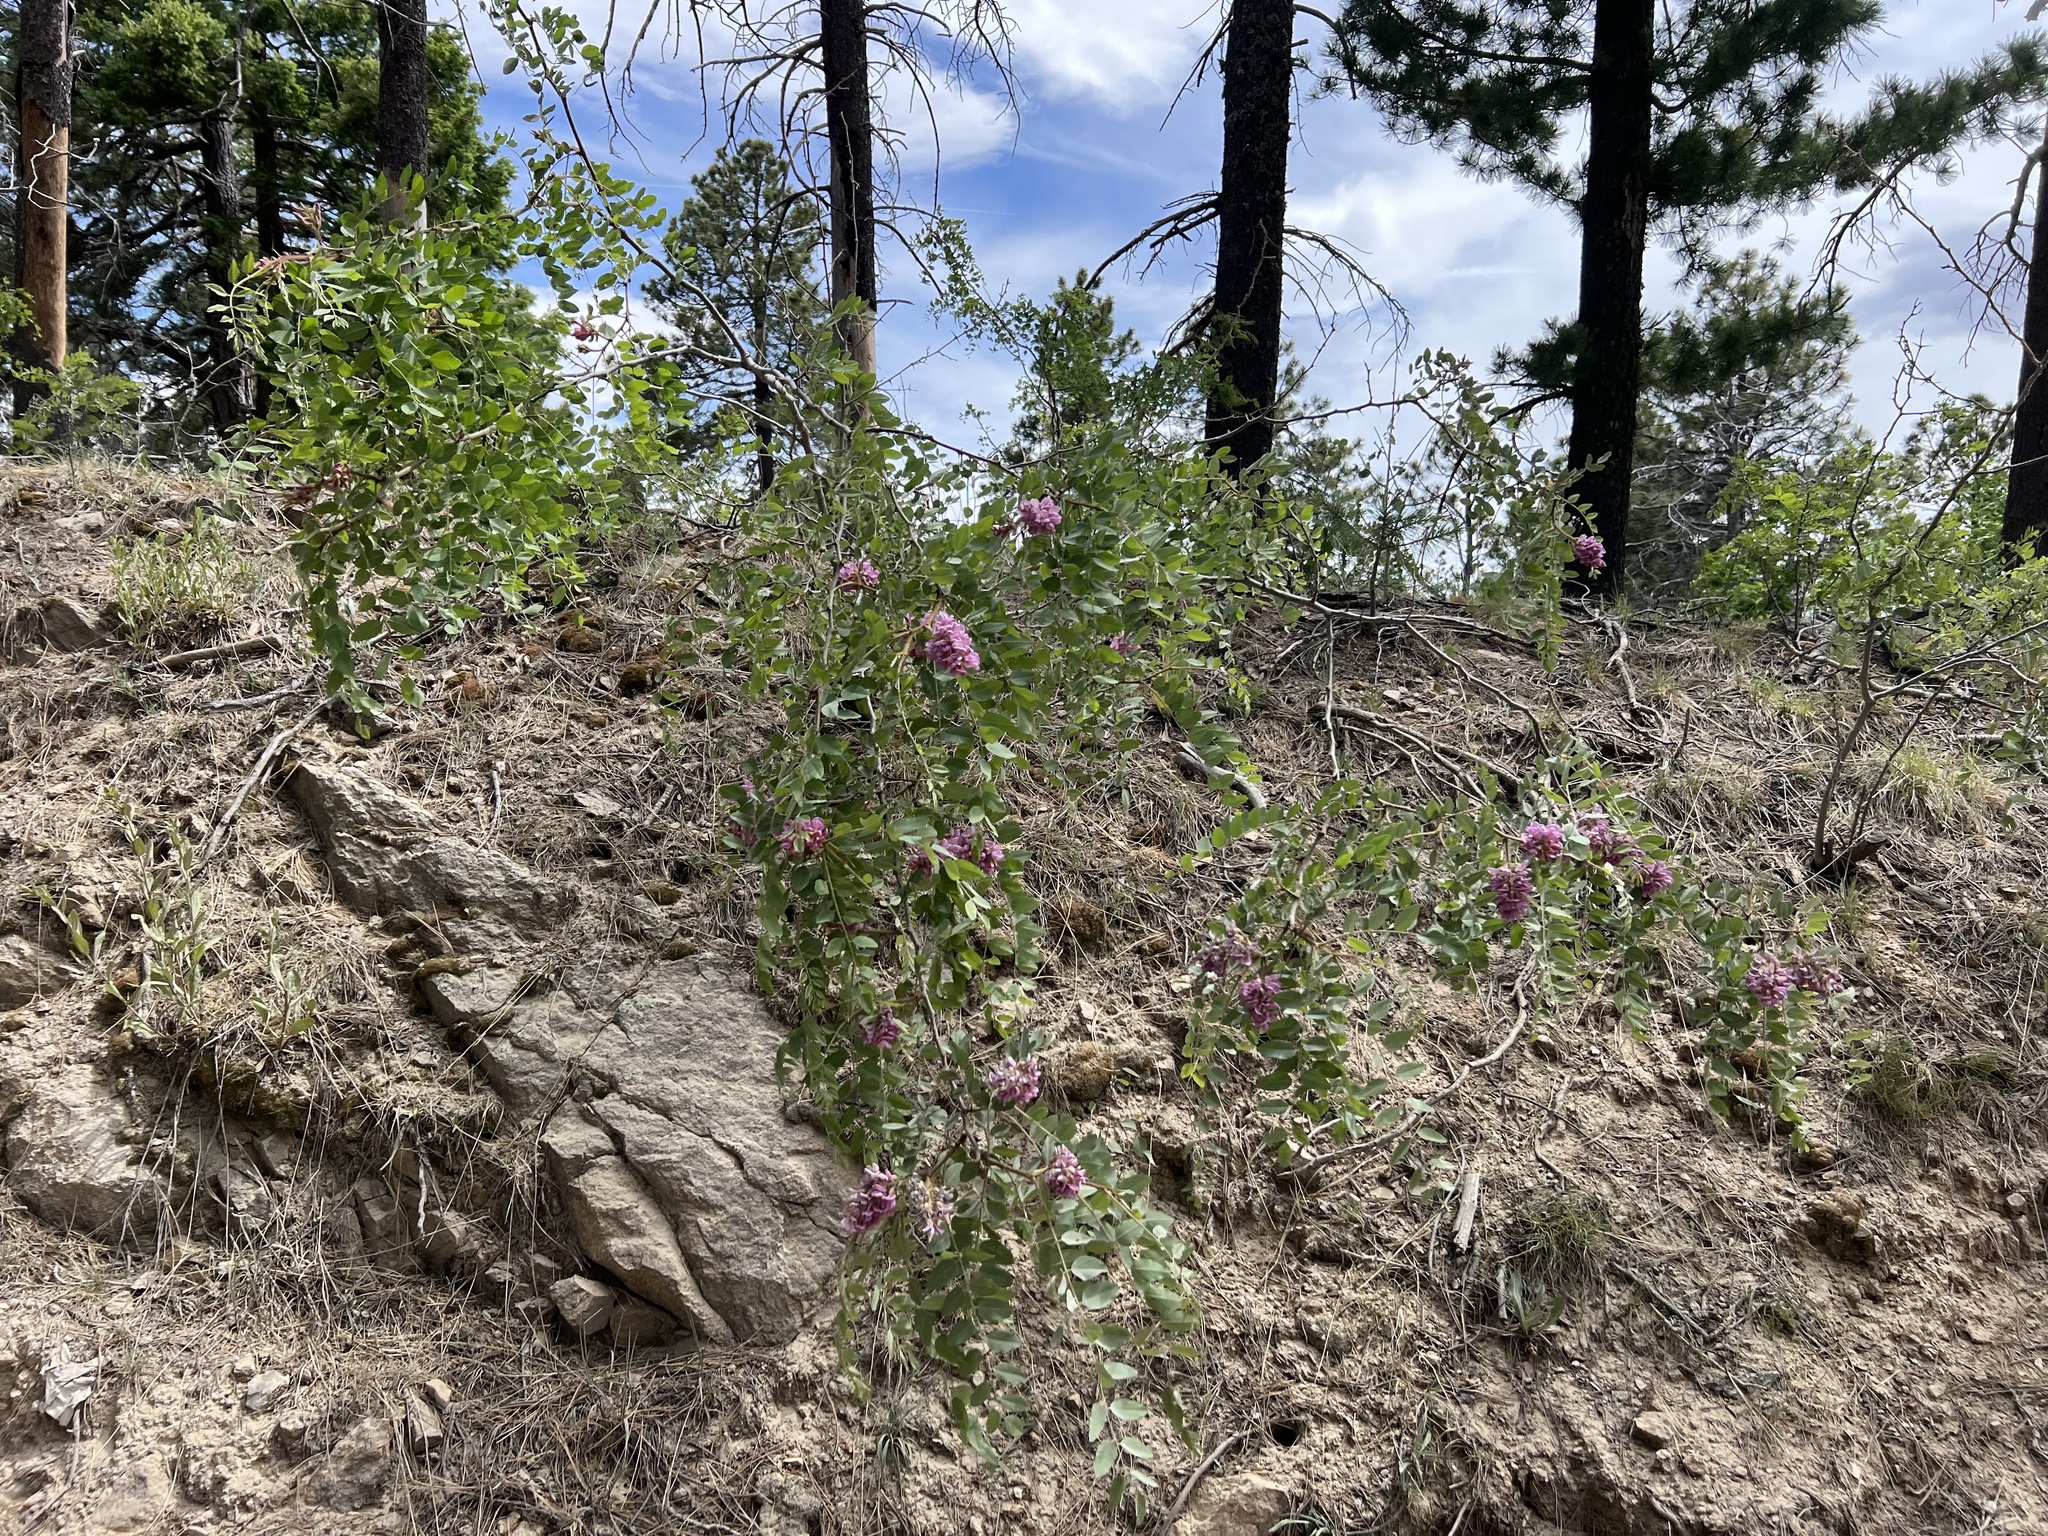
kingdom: Plantae
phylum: Tracheophyta
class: Magnoliopsida
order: Fabales
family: Fabaceae
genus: Robinia
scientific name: Robinia neomexicana
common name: New mexico locust
